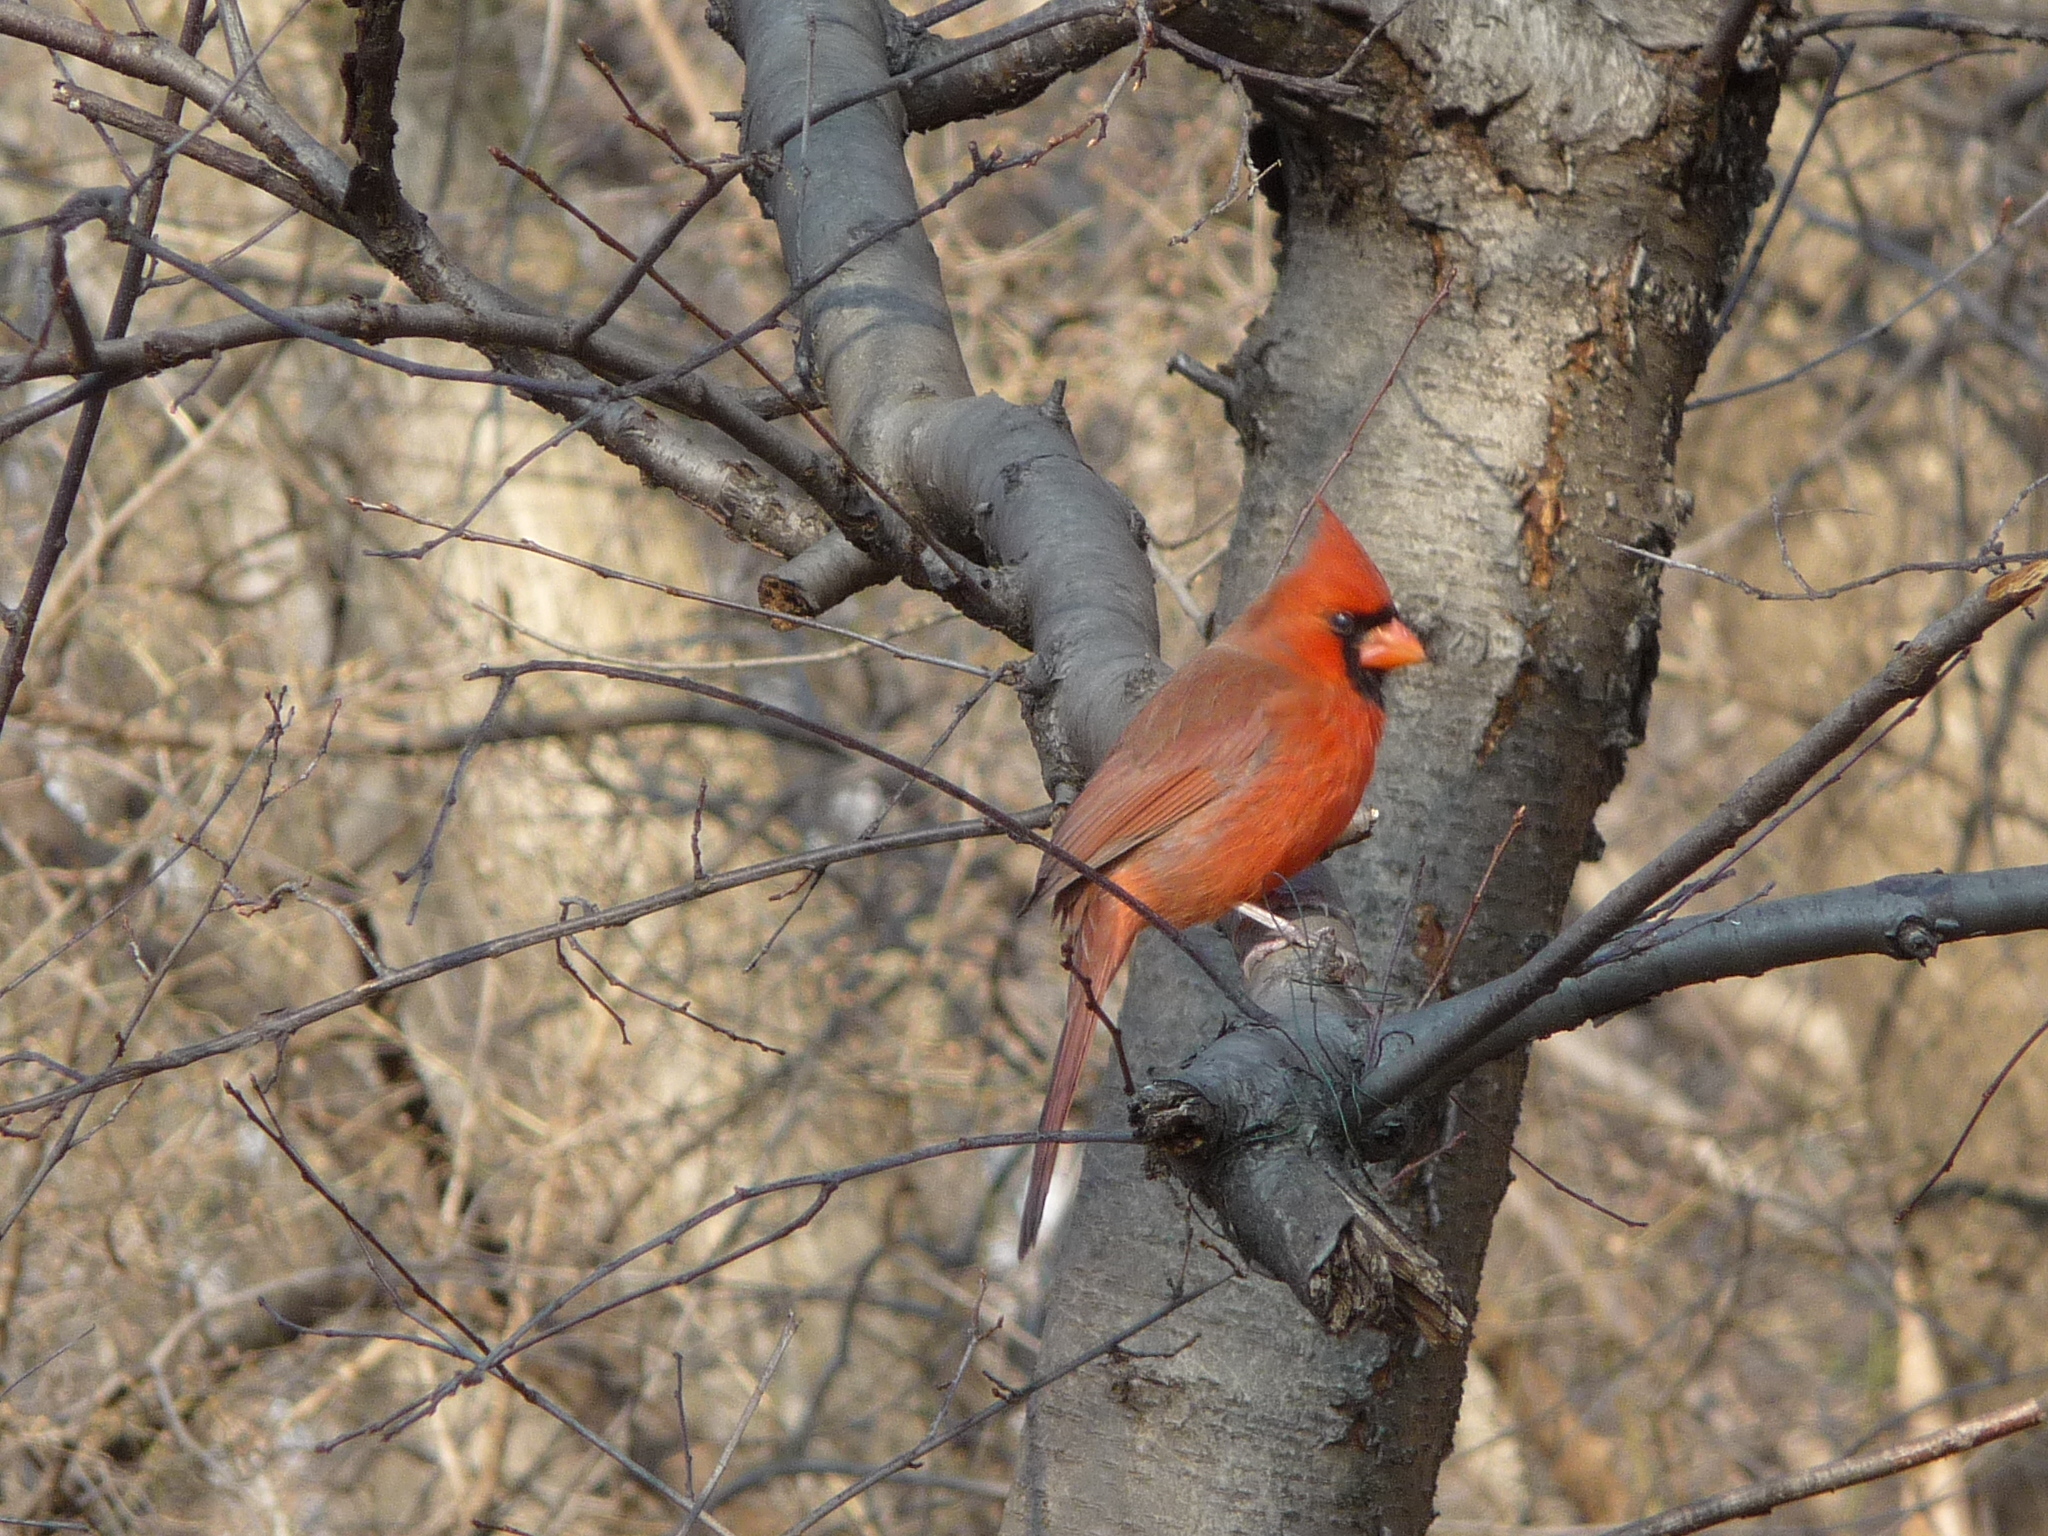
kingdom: Animalia
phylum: Chordata
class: Aves
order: Passeriformes
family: Cardinalidae
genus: Cardinalis
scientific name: Cardinalis cardinalis
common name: Northern cardinal
